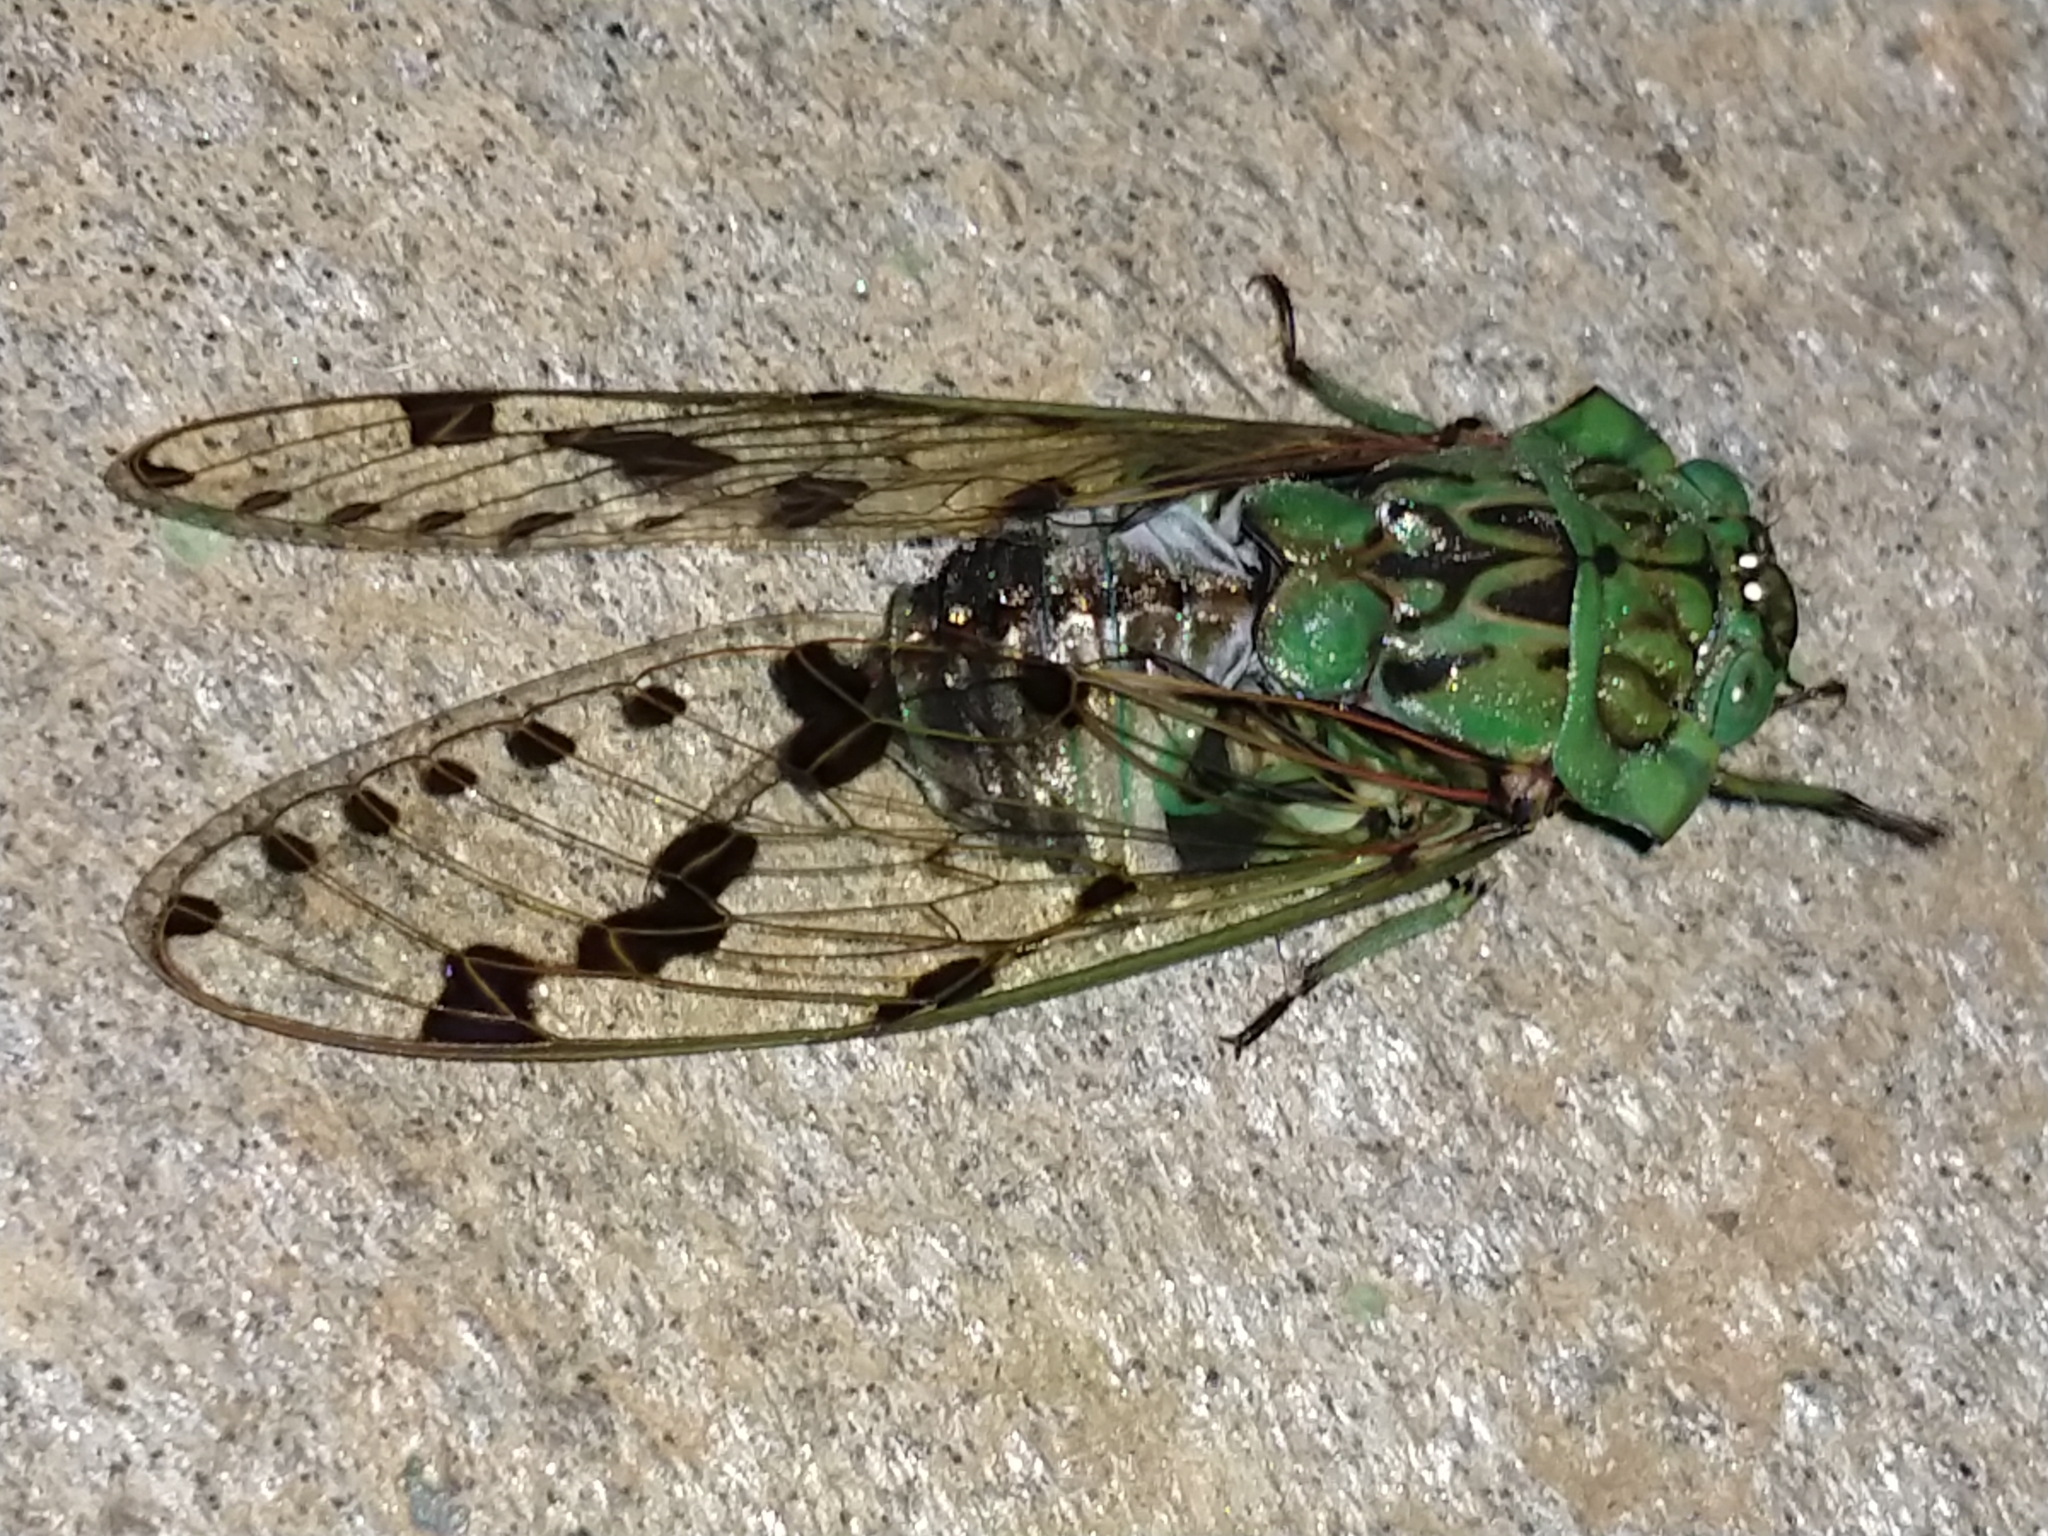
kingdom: Animalia
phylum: Arthropoda
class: Insecta
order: Hemiptera
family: Cicadidae
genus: Zammara
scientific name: Zammara tympanum
